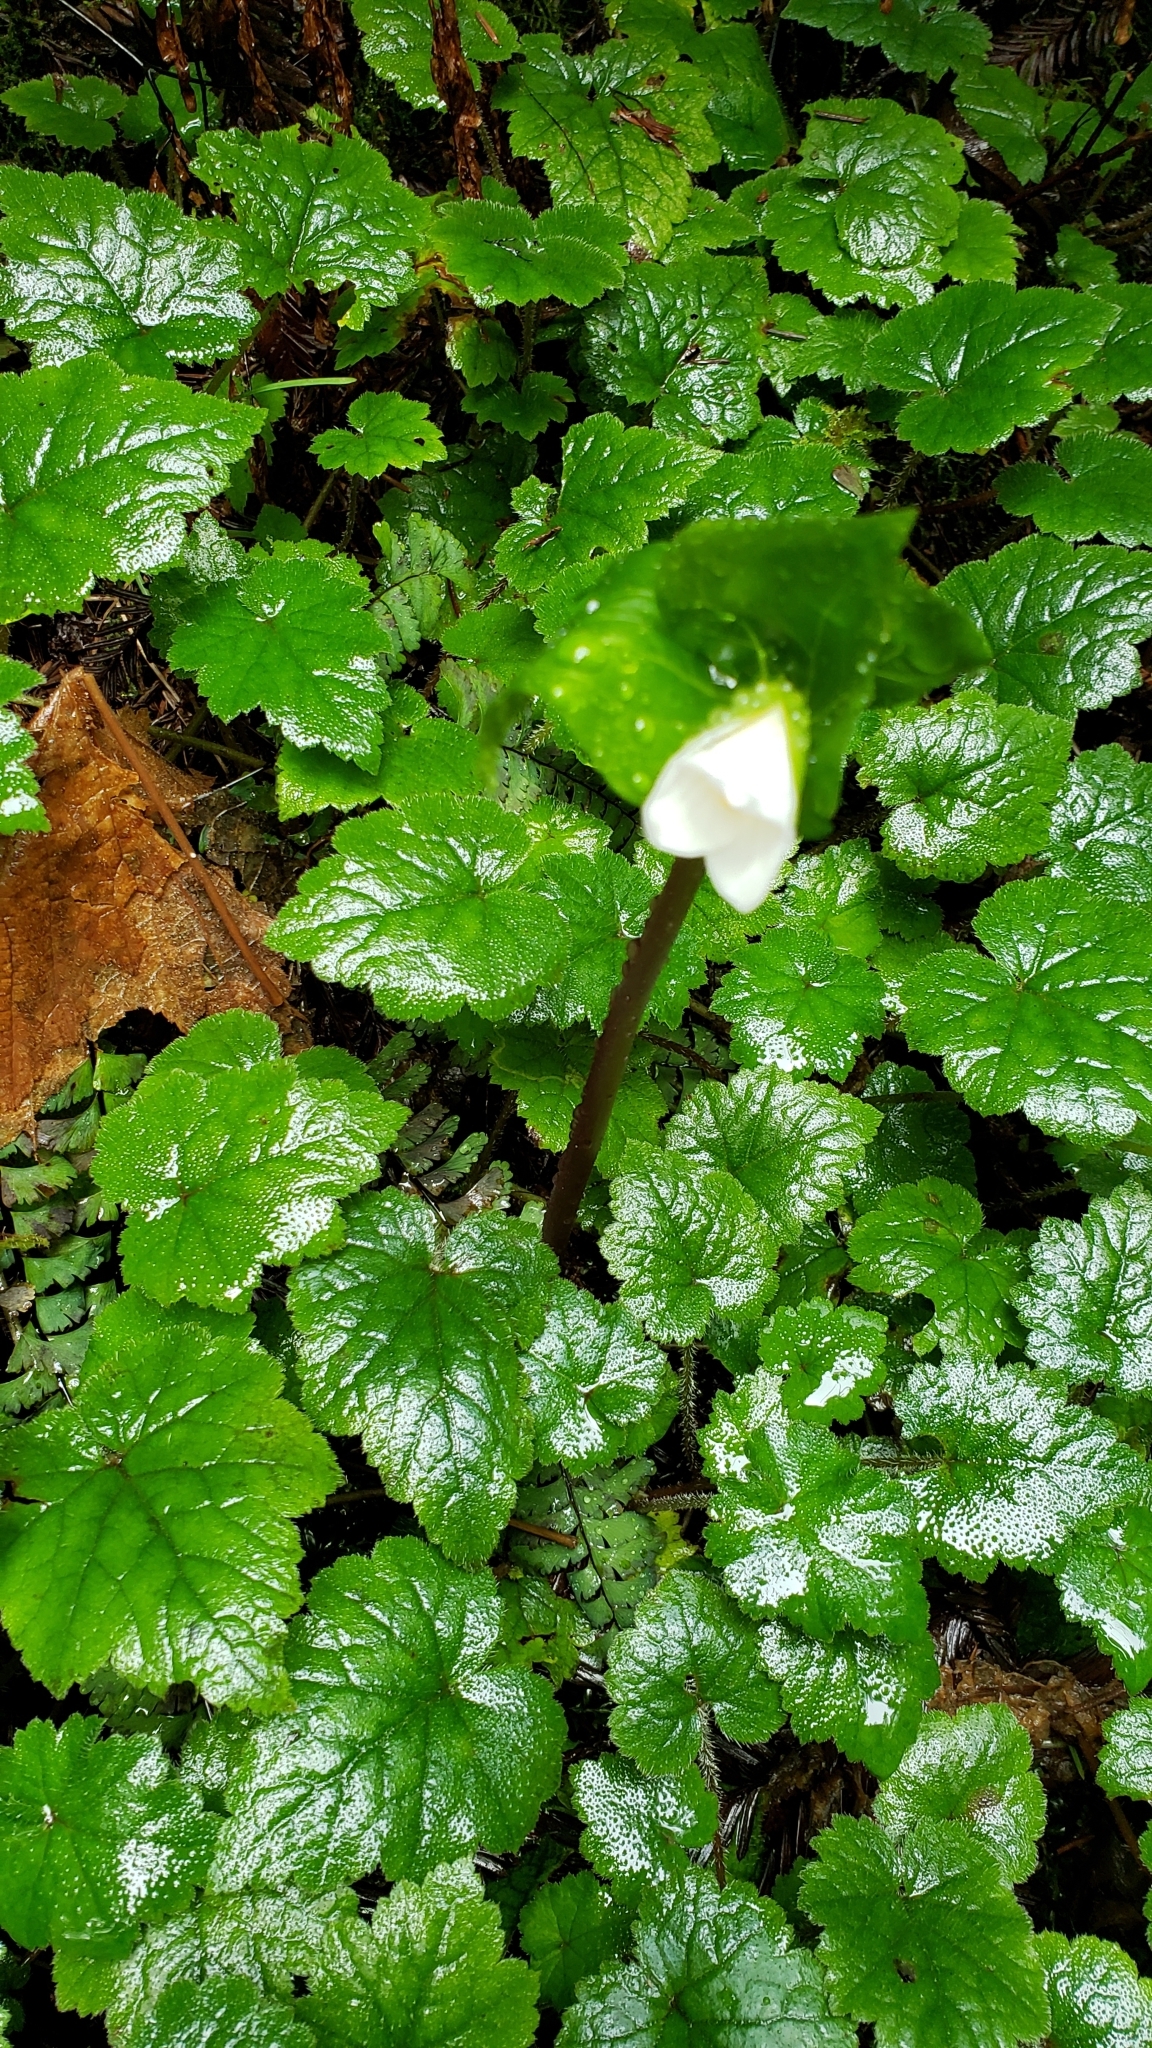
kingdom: Plantae
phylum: Tracheophyta
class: Liliopsida
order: Liliales
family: Melanthiaceae
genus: Trillium
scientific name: Trillium ovatum
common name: Pacific trillium
